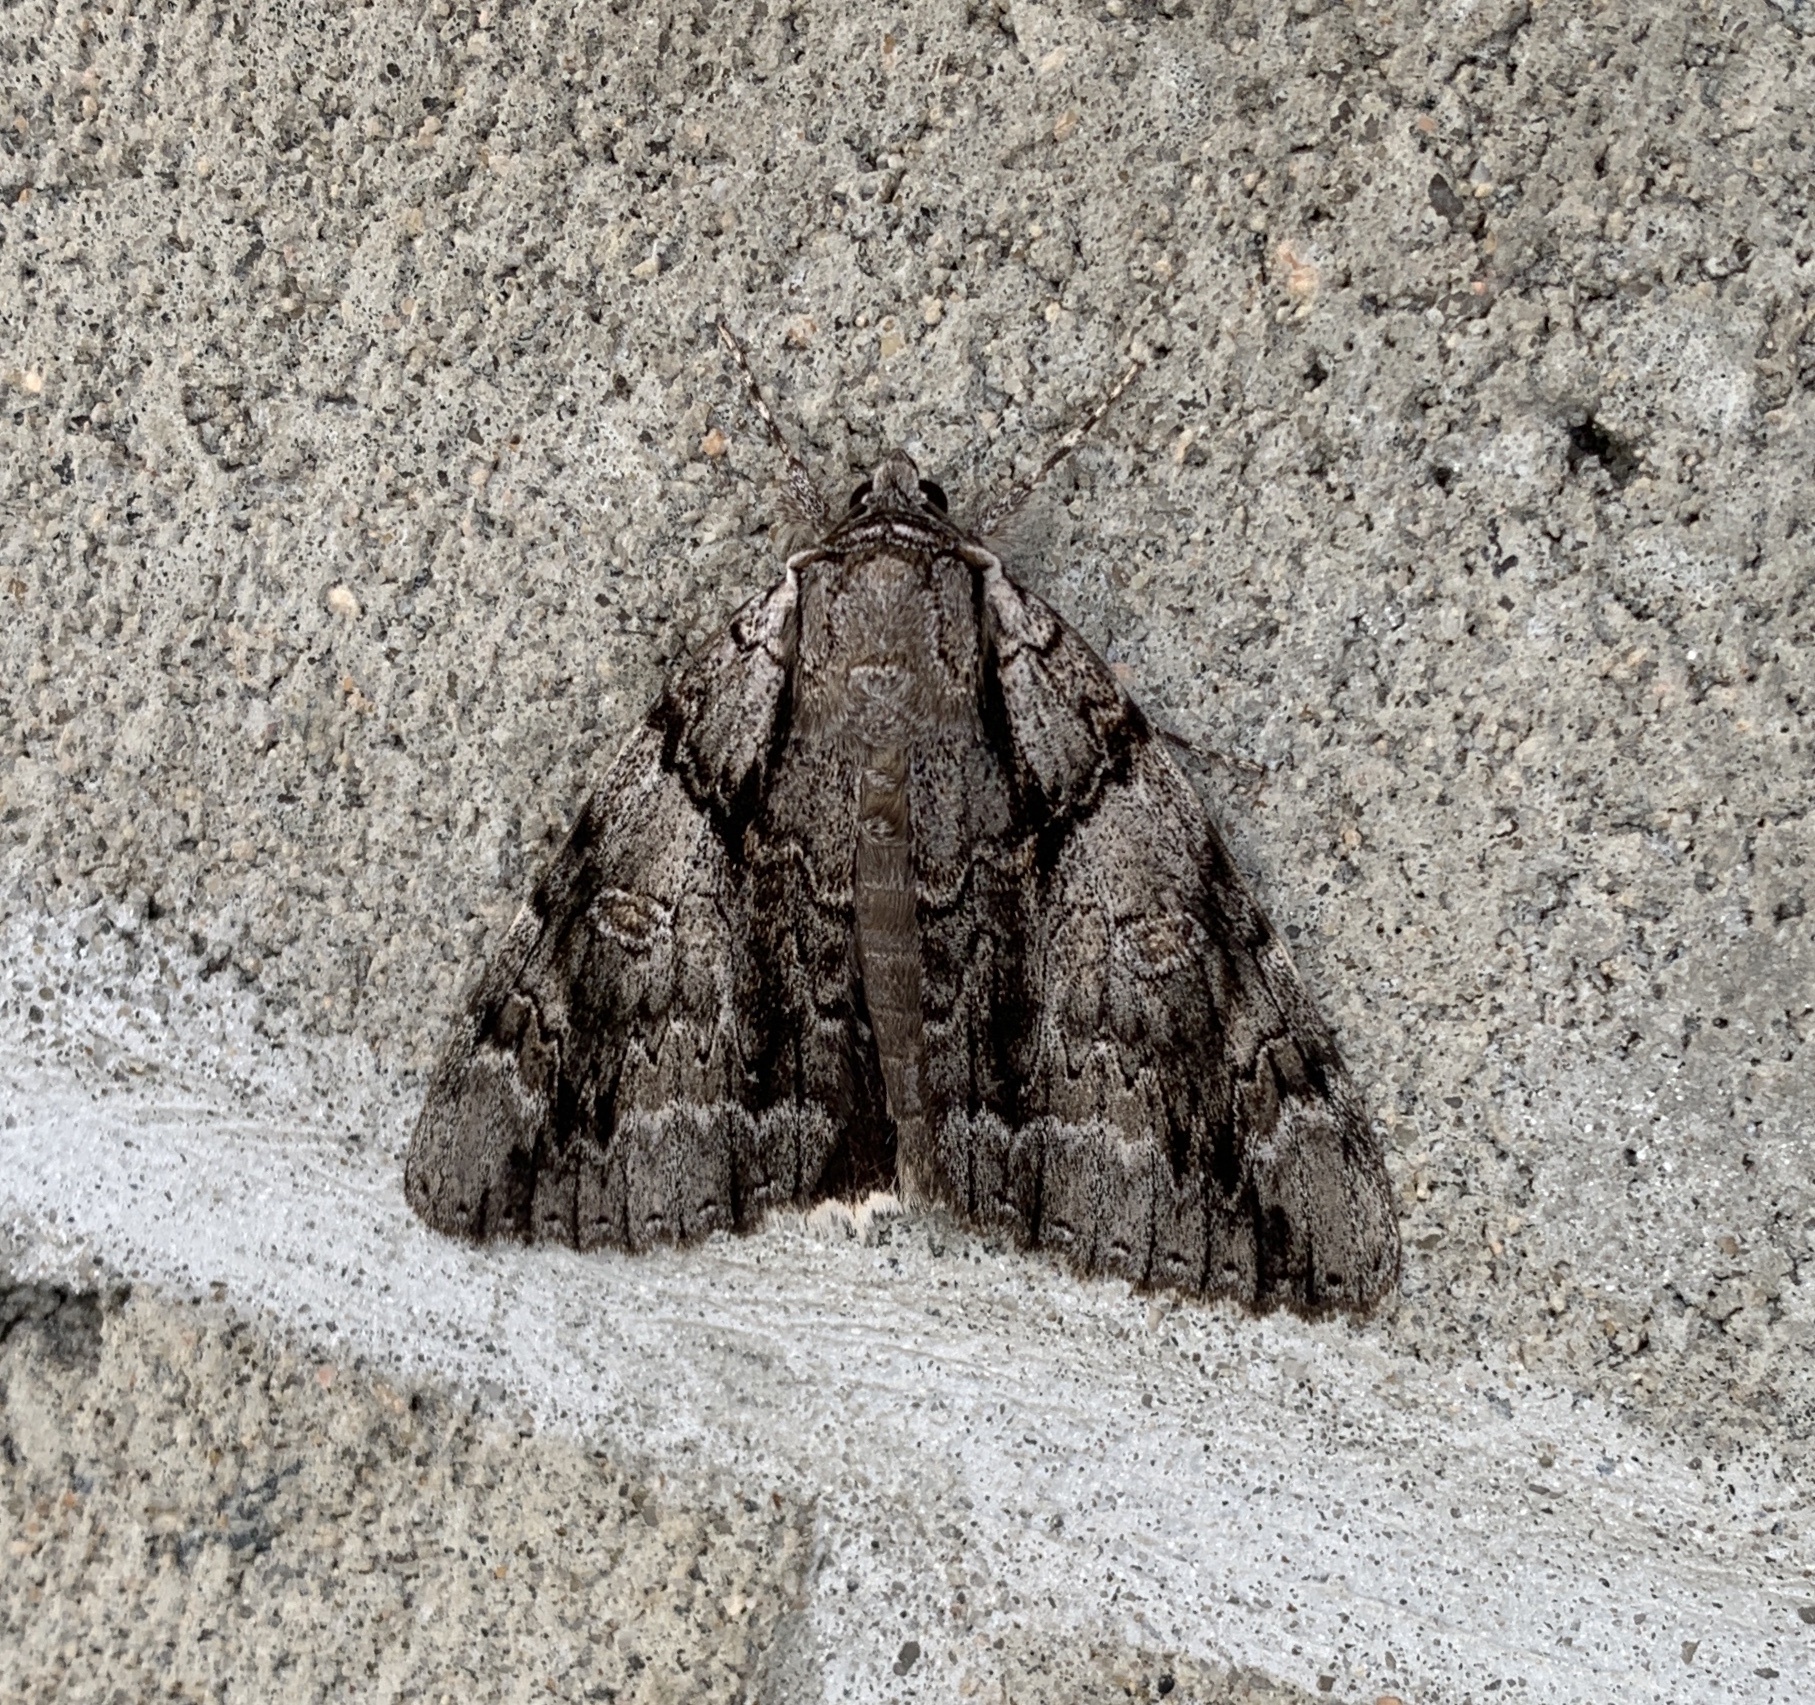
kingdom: Animalia
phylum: Arthropoda
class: Insecta
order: Lepidoptera
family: Erebidae
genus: Catocala
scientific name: Catocala vidua
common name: The widow
